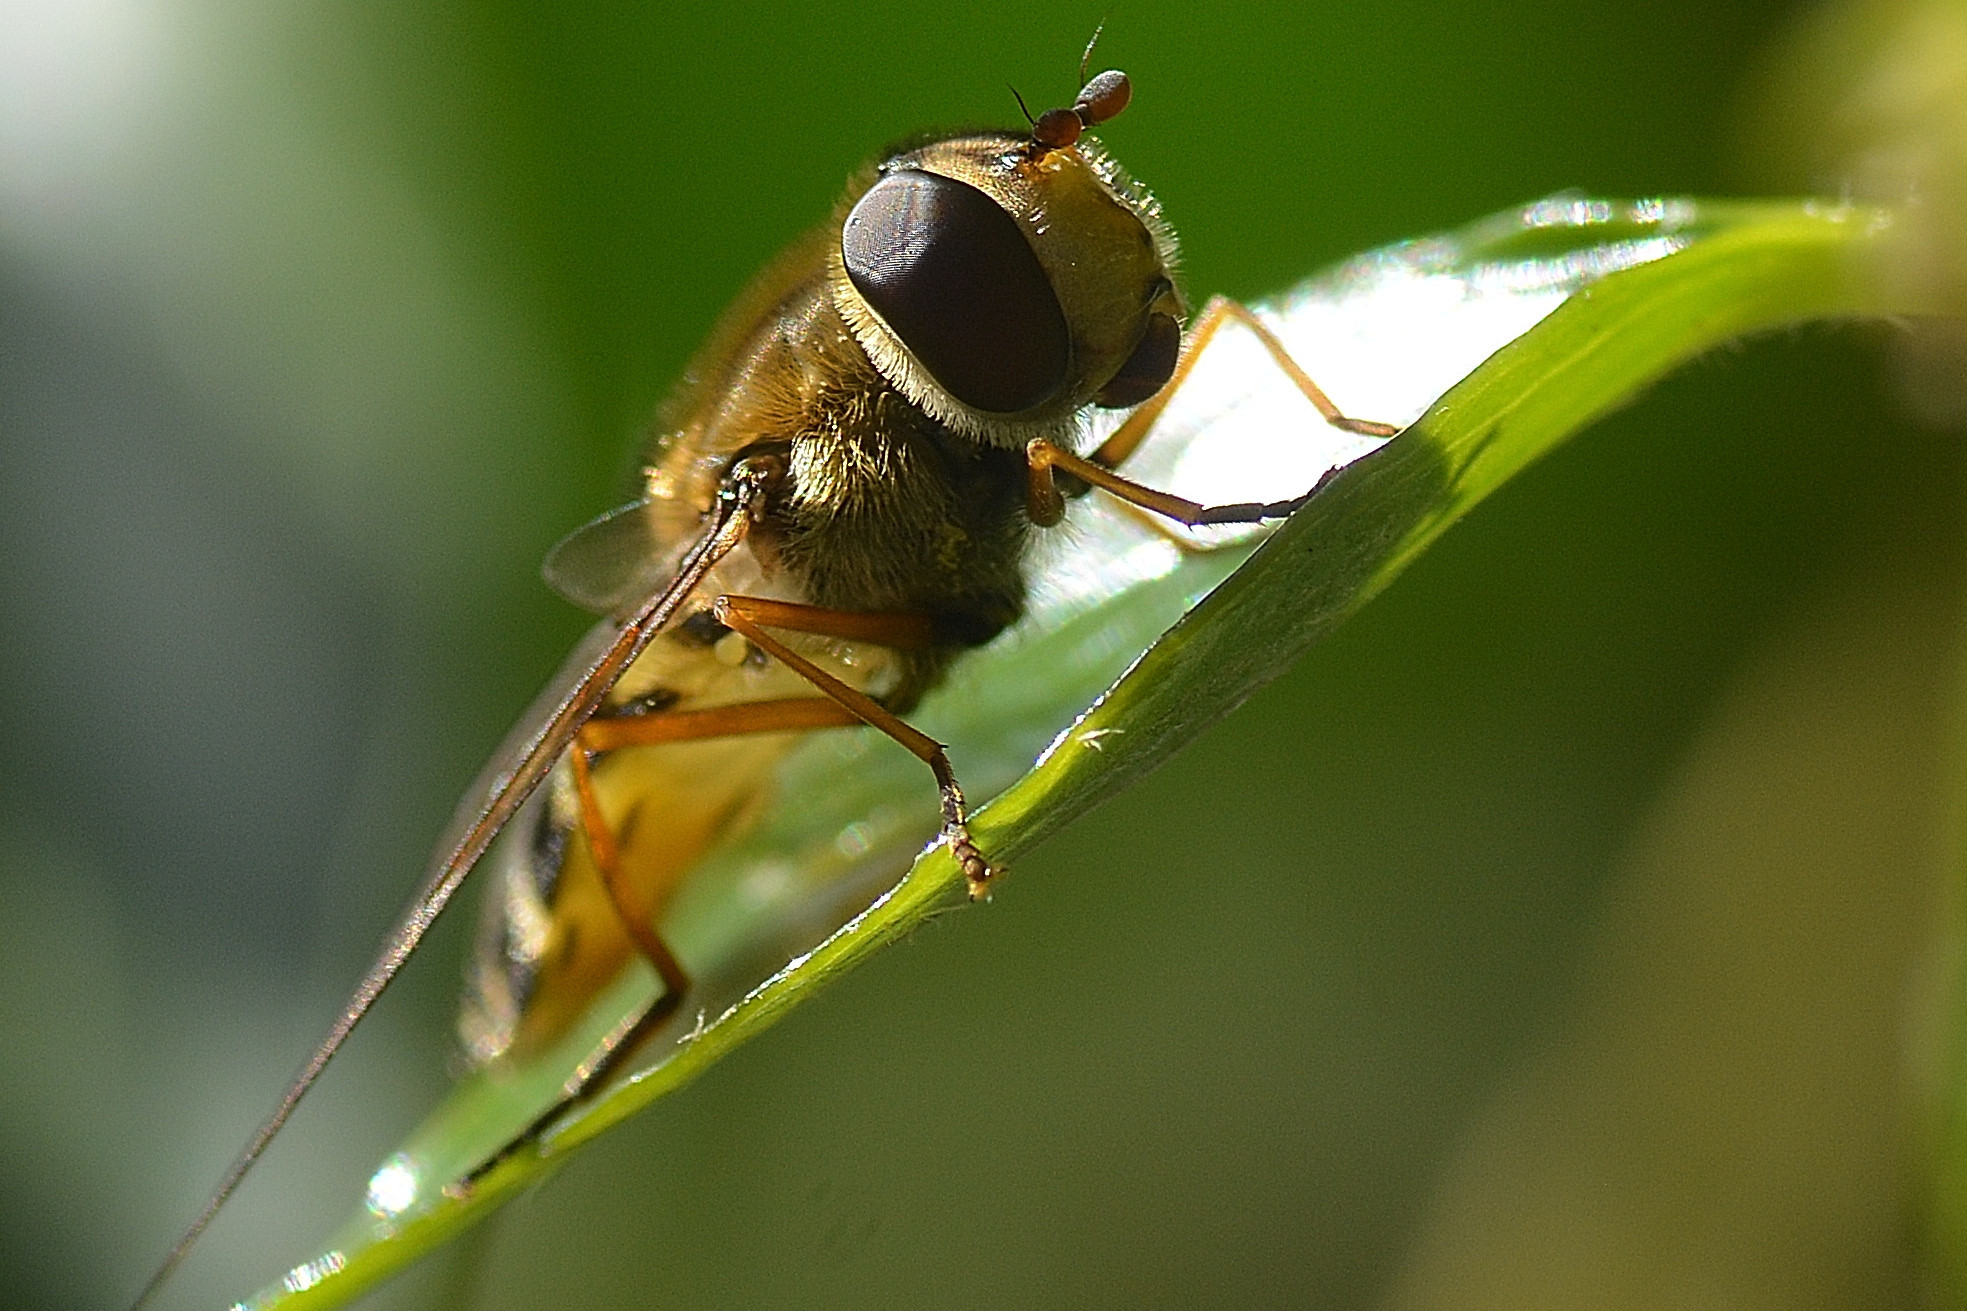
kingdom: Animalia
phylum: Arthropoda
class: Insecta
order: Diptera
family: Syrphidae
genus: Syrphus
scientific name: Syrphus ribesii
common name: Common flower fly
